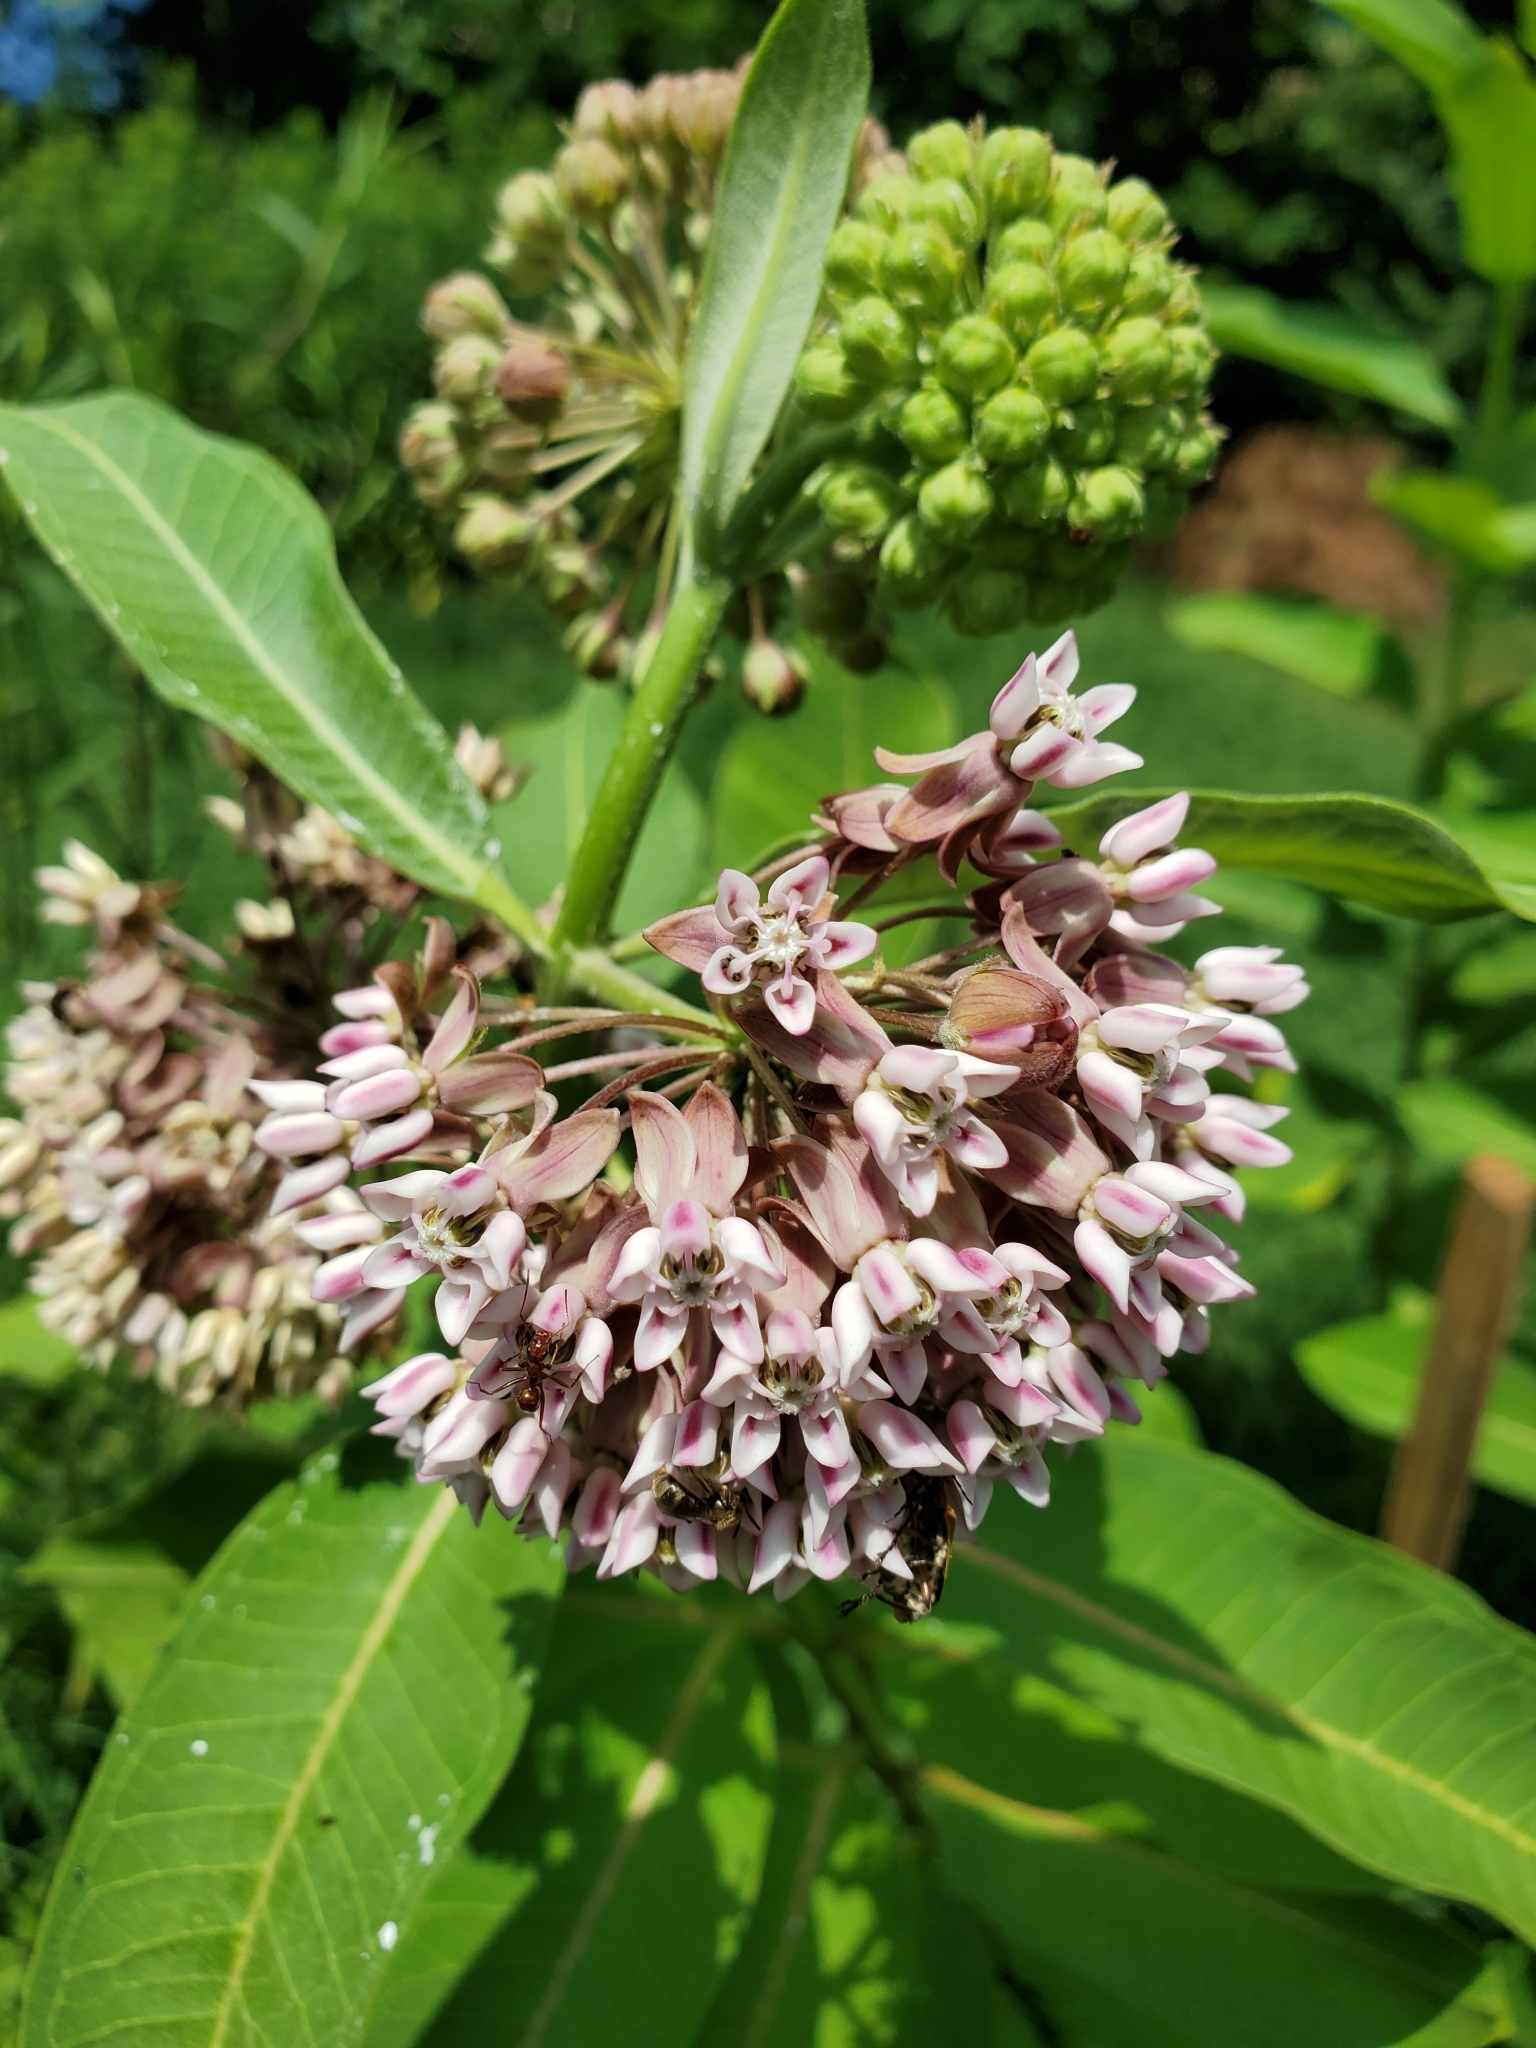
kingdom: Plantae
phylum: Tracheophyta
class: Magnoliopsida
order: Gentianales
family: Apocynaceae
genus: Asclepias
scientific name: Asclepias syriaca
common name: Common milkweed
